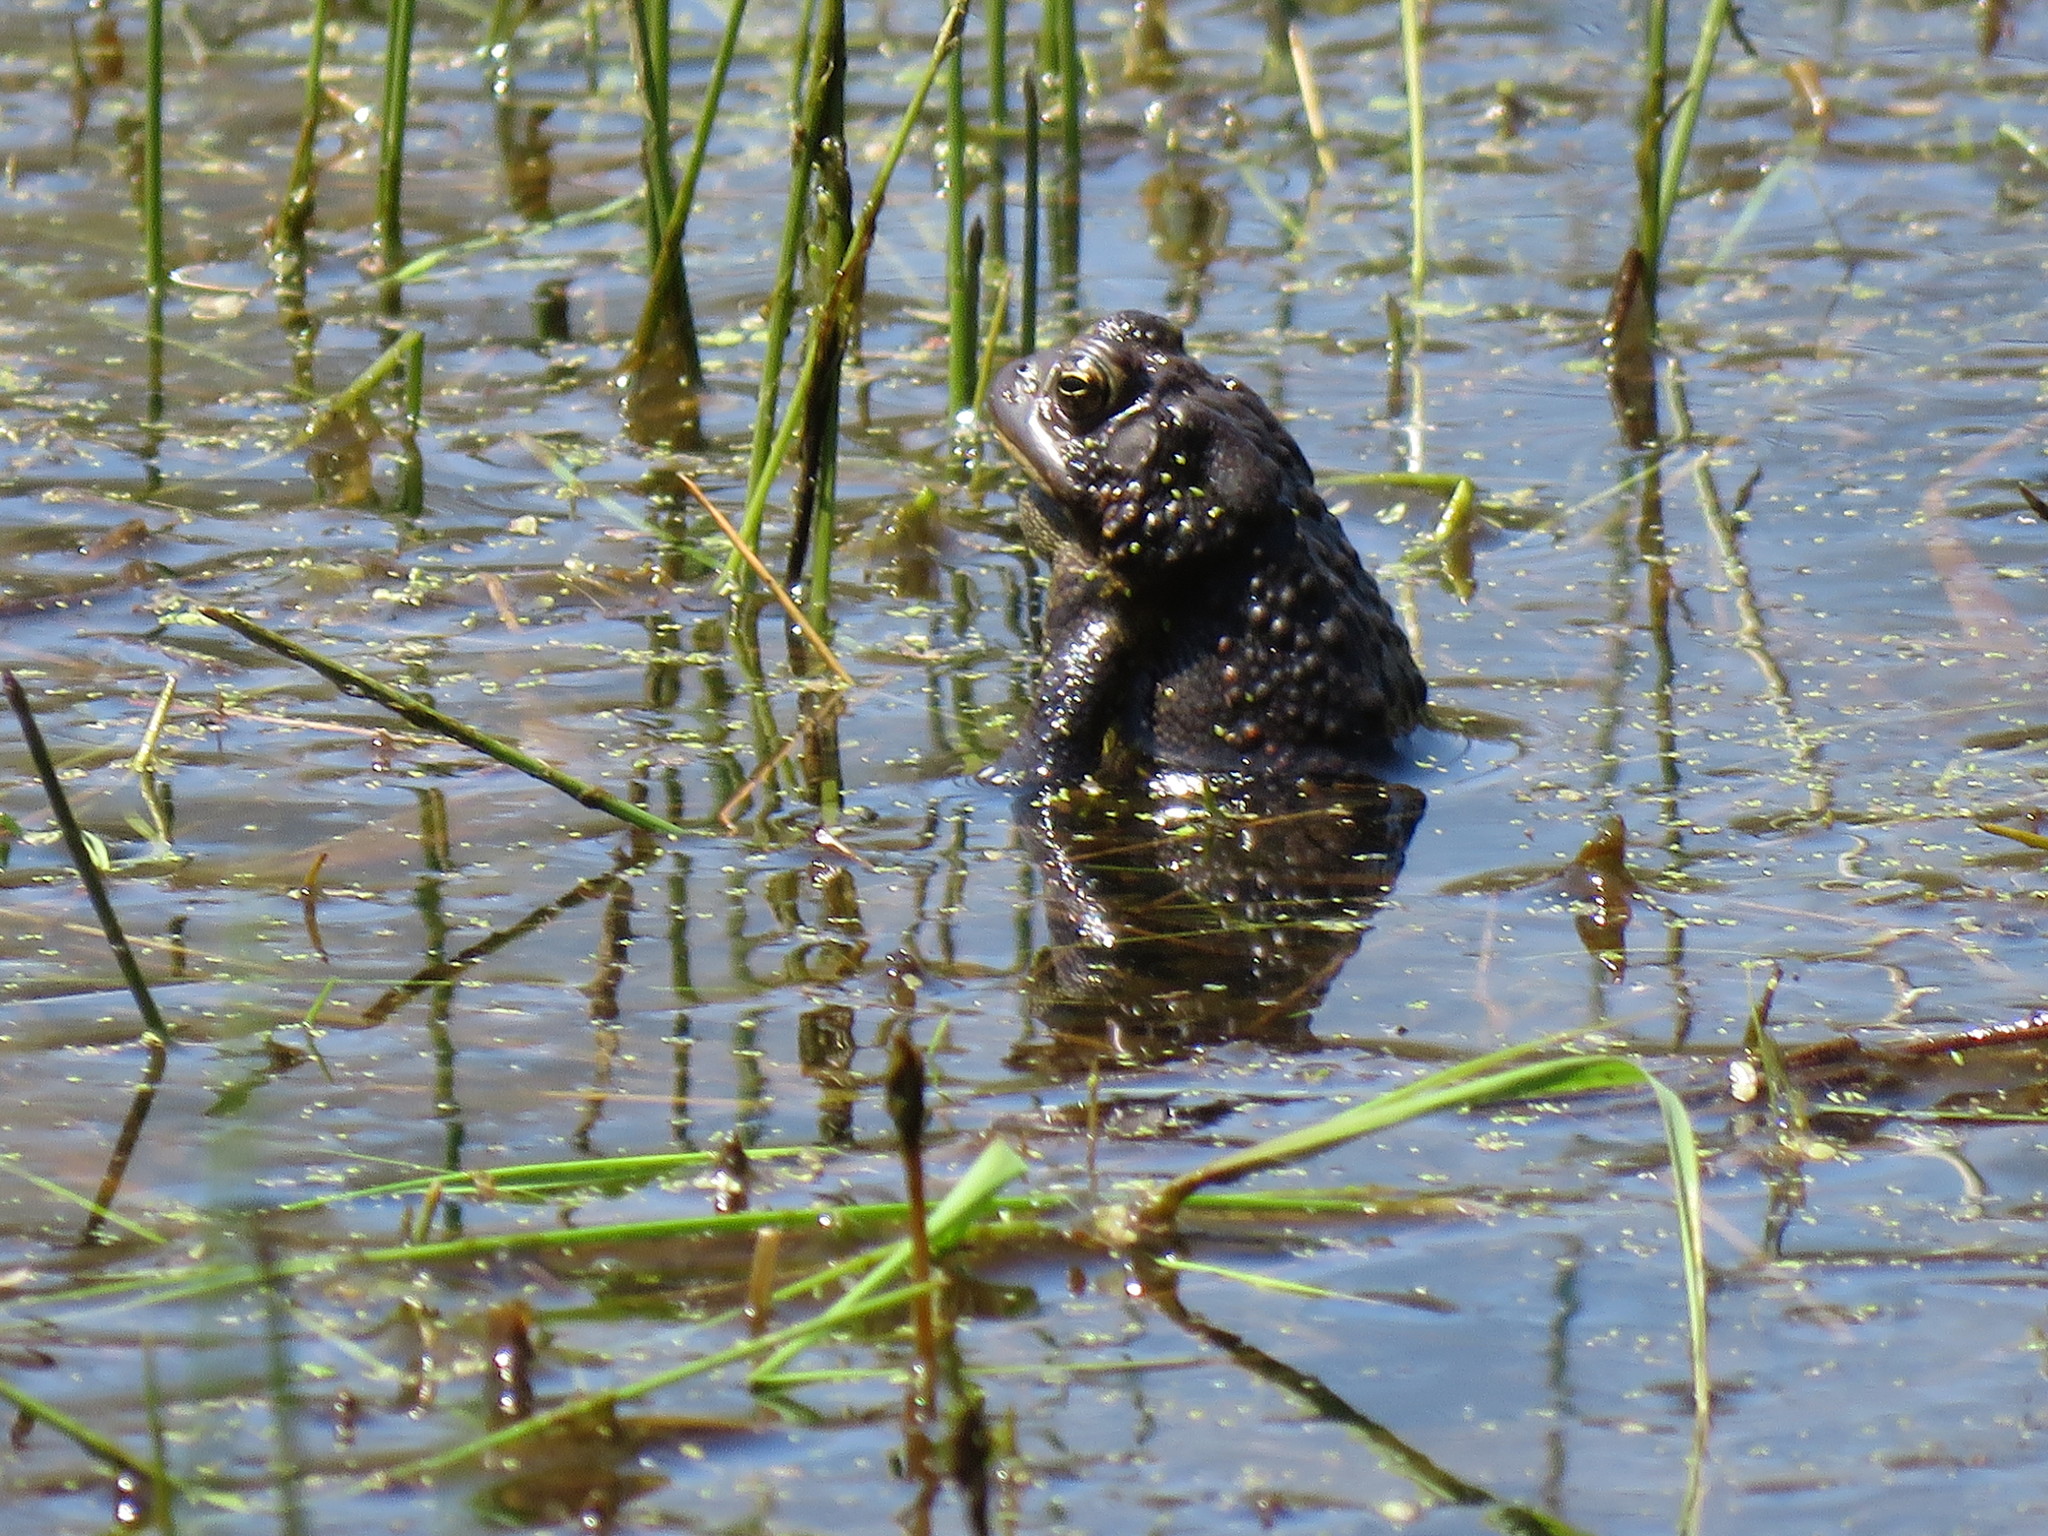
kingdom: Animalia
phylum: Chordata
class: Amphibia
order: Anura
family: Bufonidae
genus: Anaxyrus
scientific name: Anaxyrus americanus
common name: American toad
